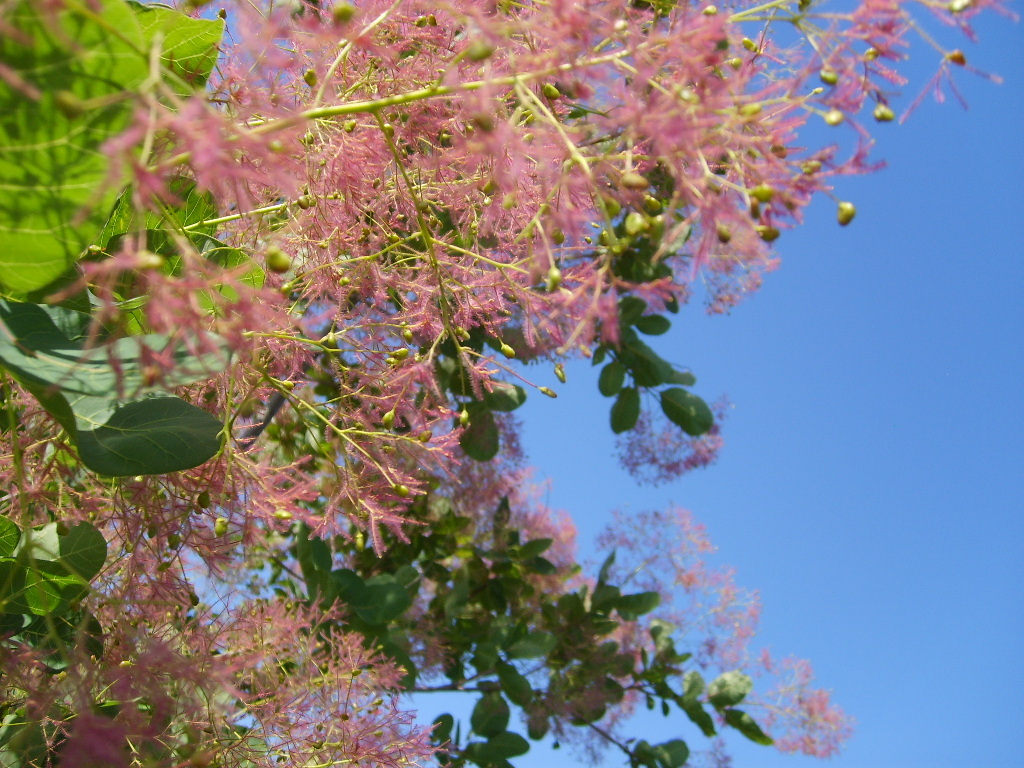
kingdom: Plantae
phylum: Tracheophyta
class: Magnoliopsida
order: Sapindales
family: Anacardiaceae
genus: Cotinus
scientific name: Cotinus coggygria
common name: Smoke-tree
